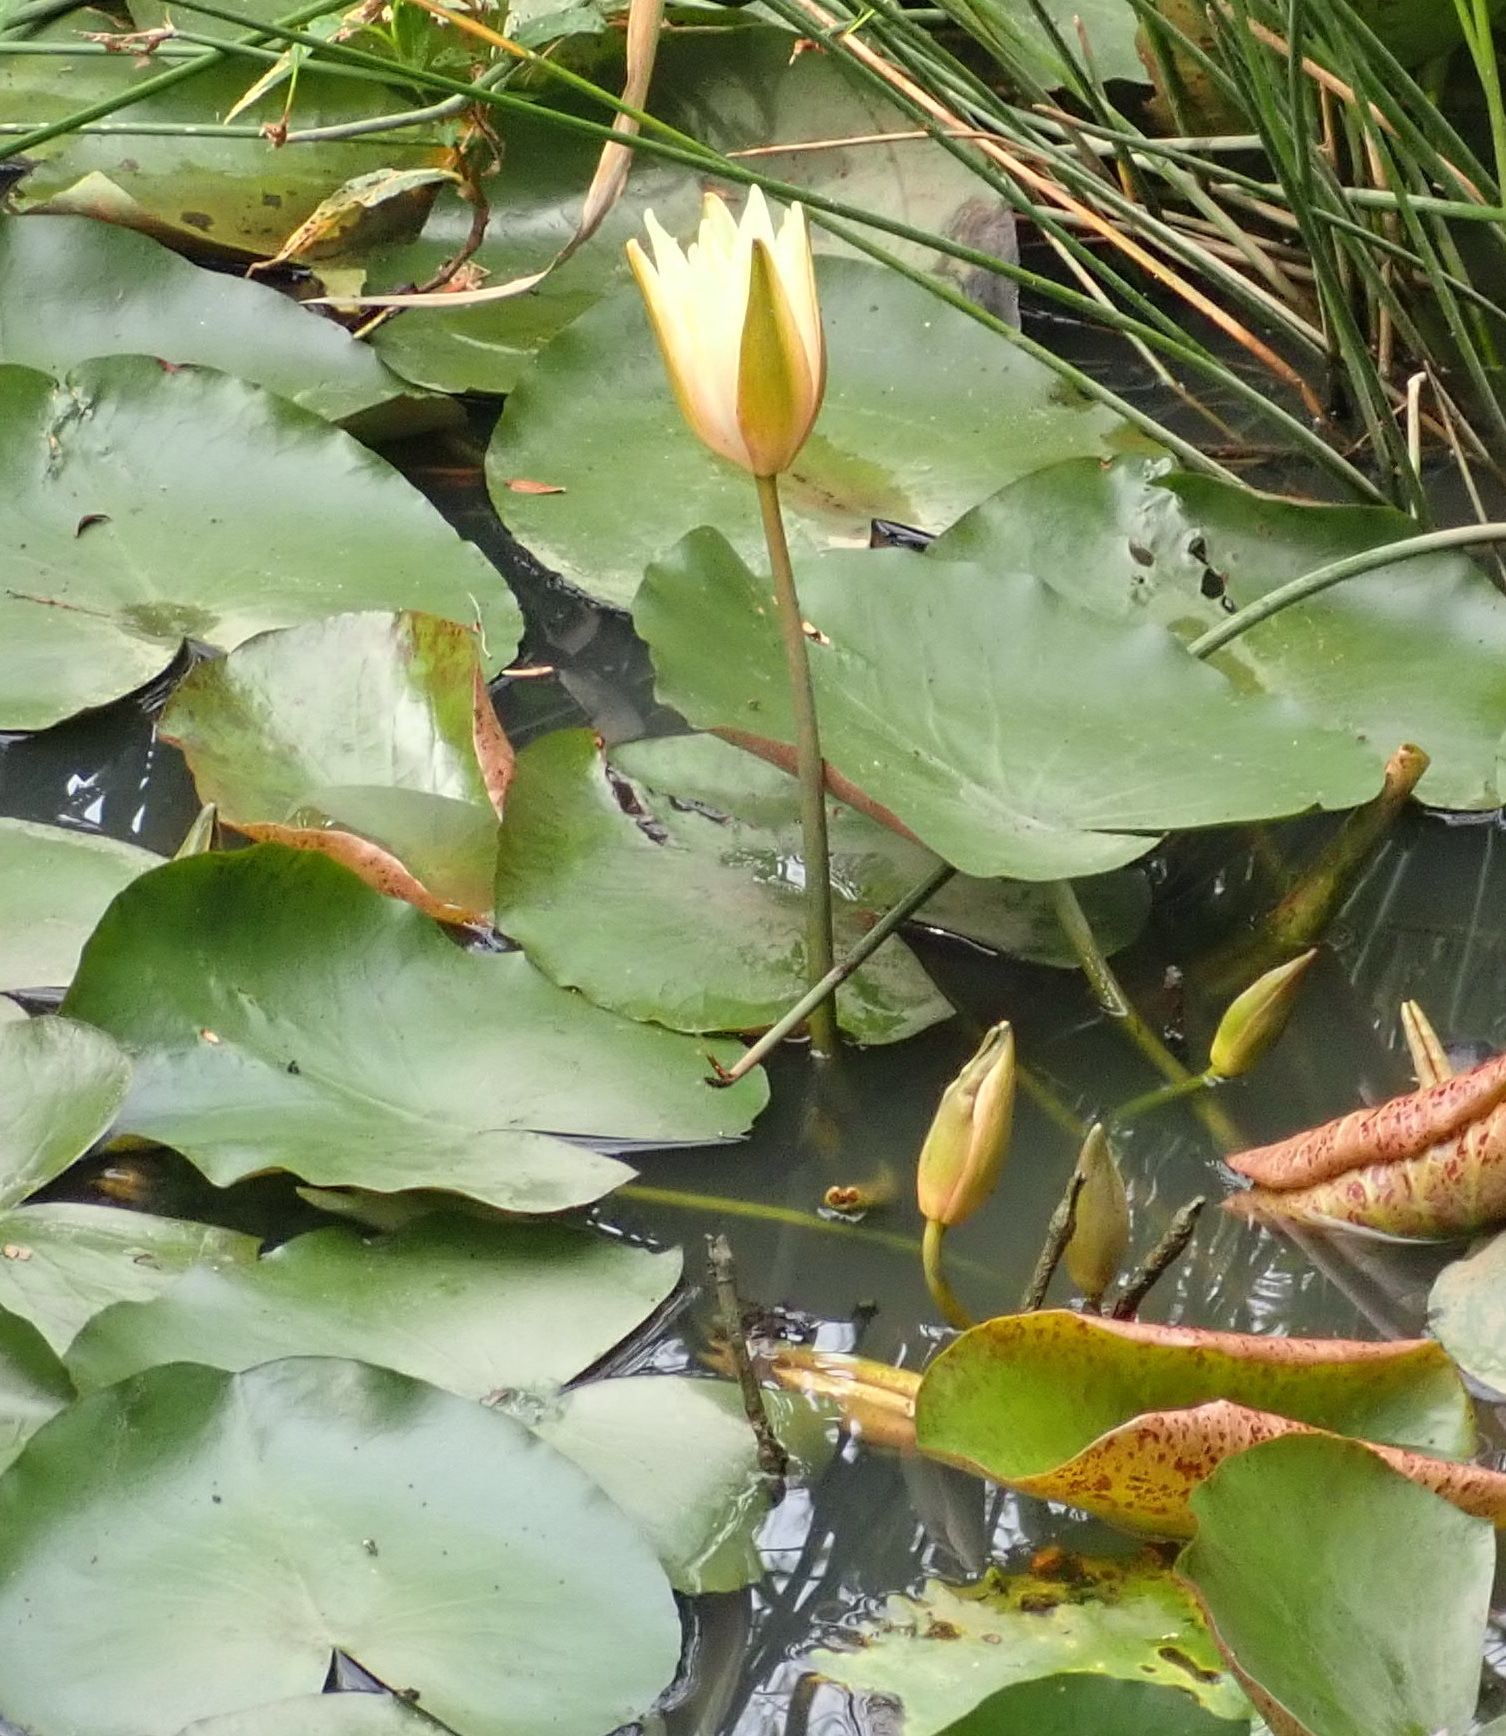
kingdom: Plantae
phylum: Tracheophyta
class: Magnoliopsida
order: Nymphaeales
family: Nymphaeaceae
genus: Nymphaea
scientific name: Nymphaea mexicana
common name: Banana water-lily
